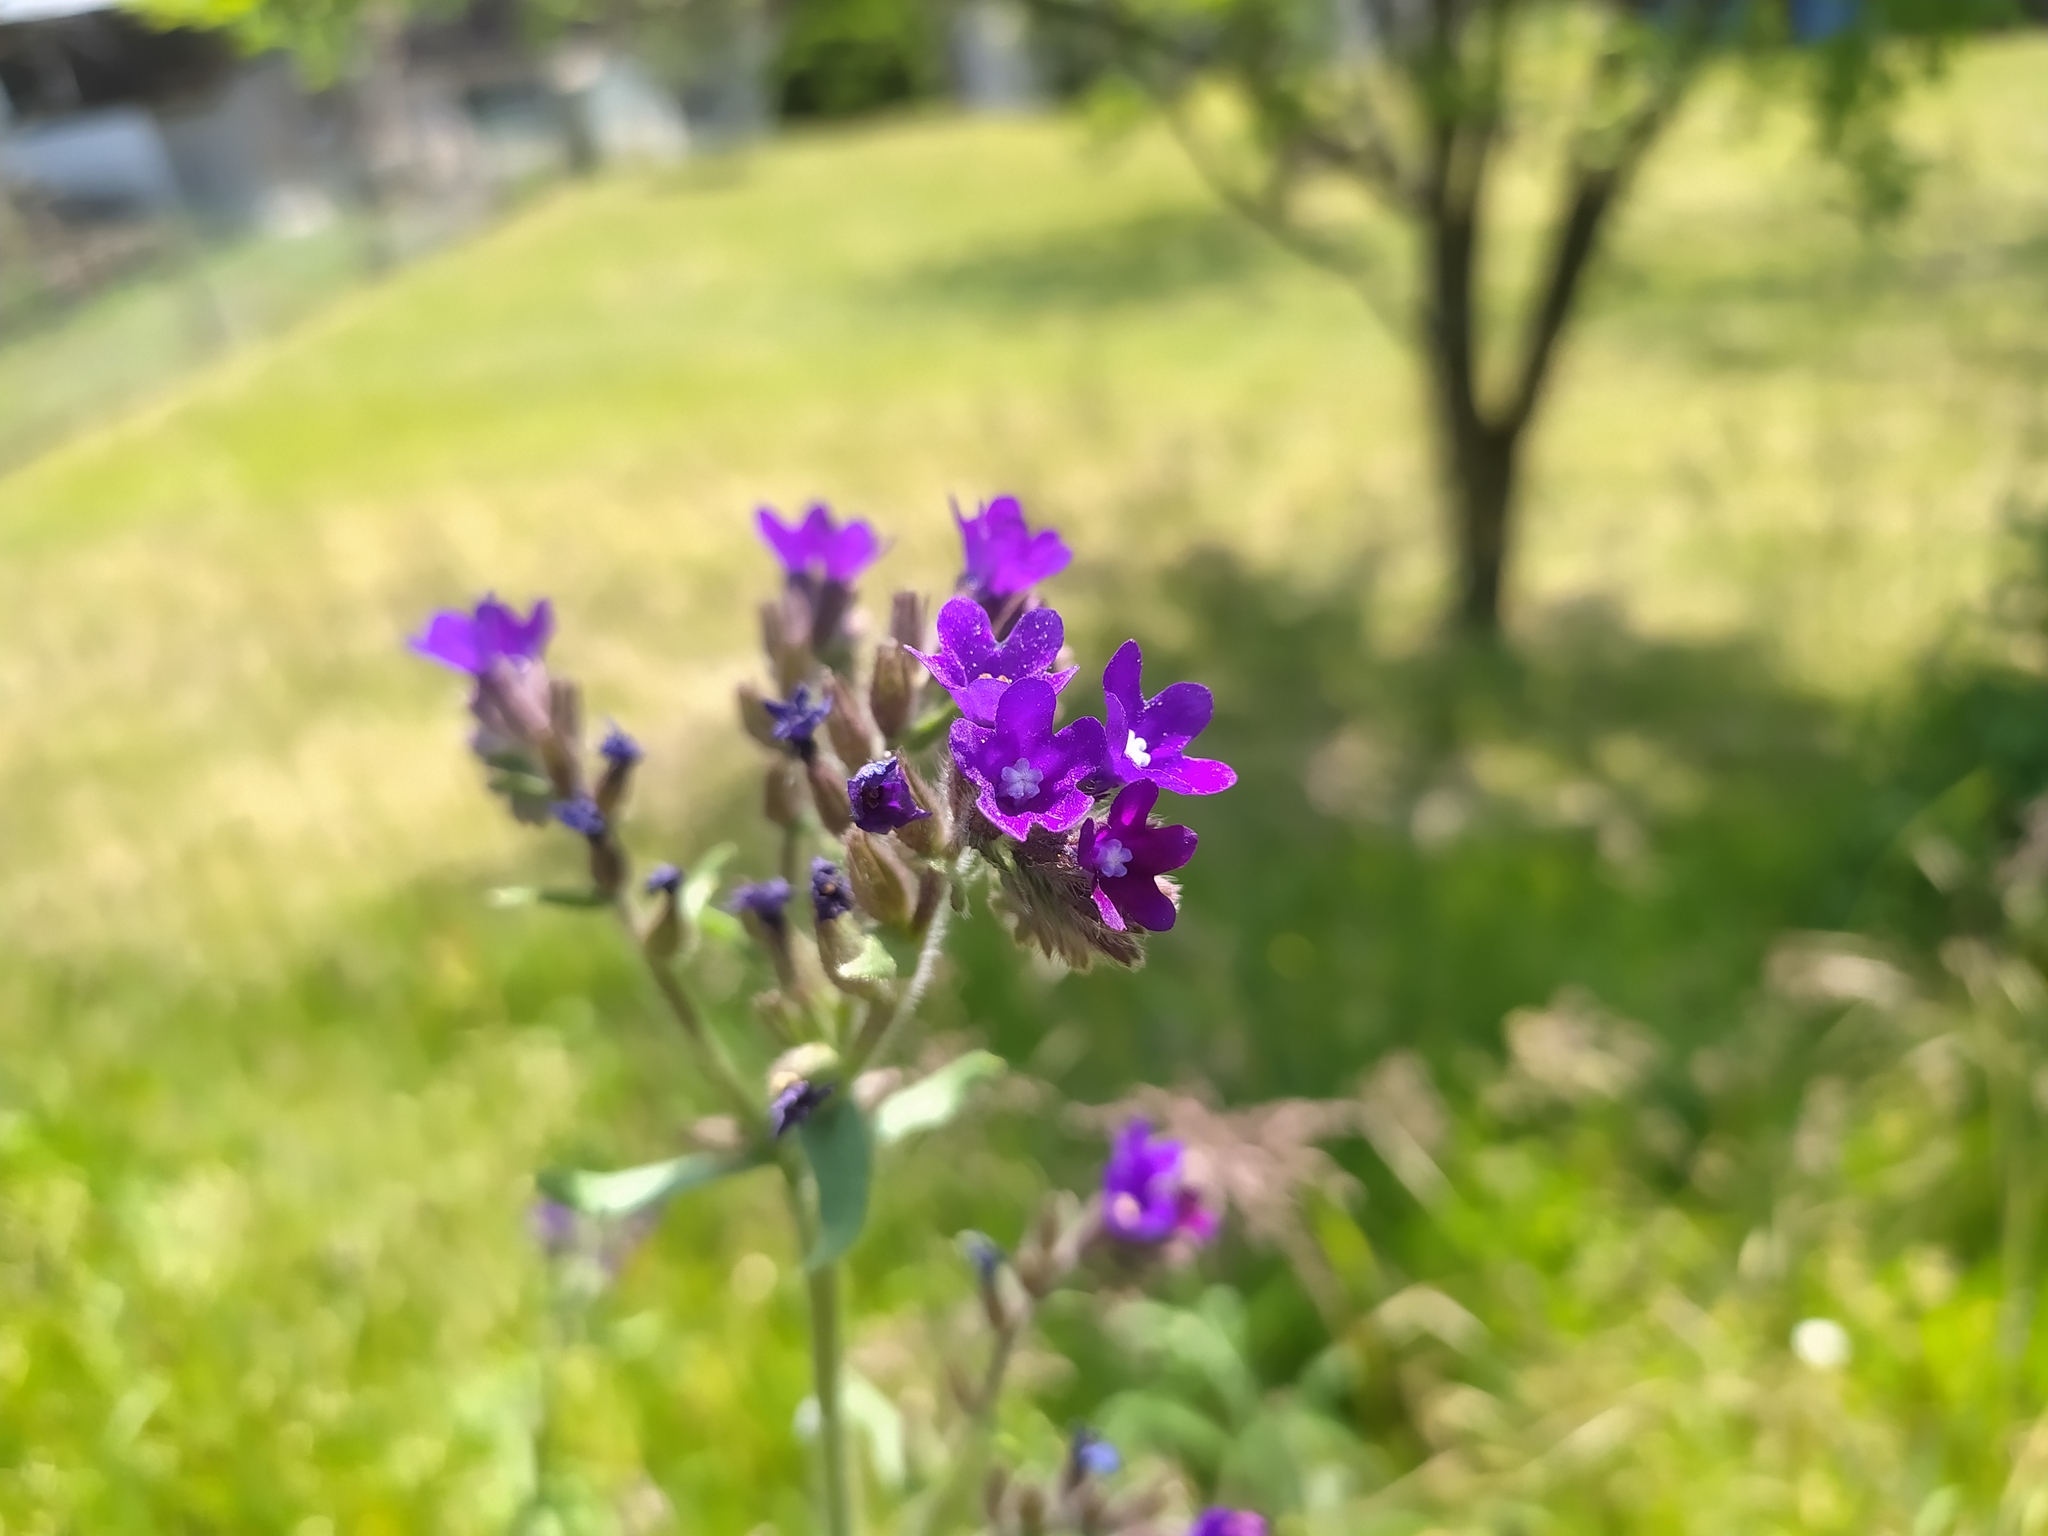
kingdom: Plantae
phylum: Tracheophyta
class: Magnoliopsida
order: Boraginales
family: Boraginaceae
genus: Anchusa
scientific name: Anchusa officinalis
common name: Alkanet
